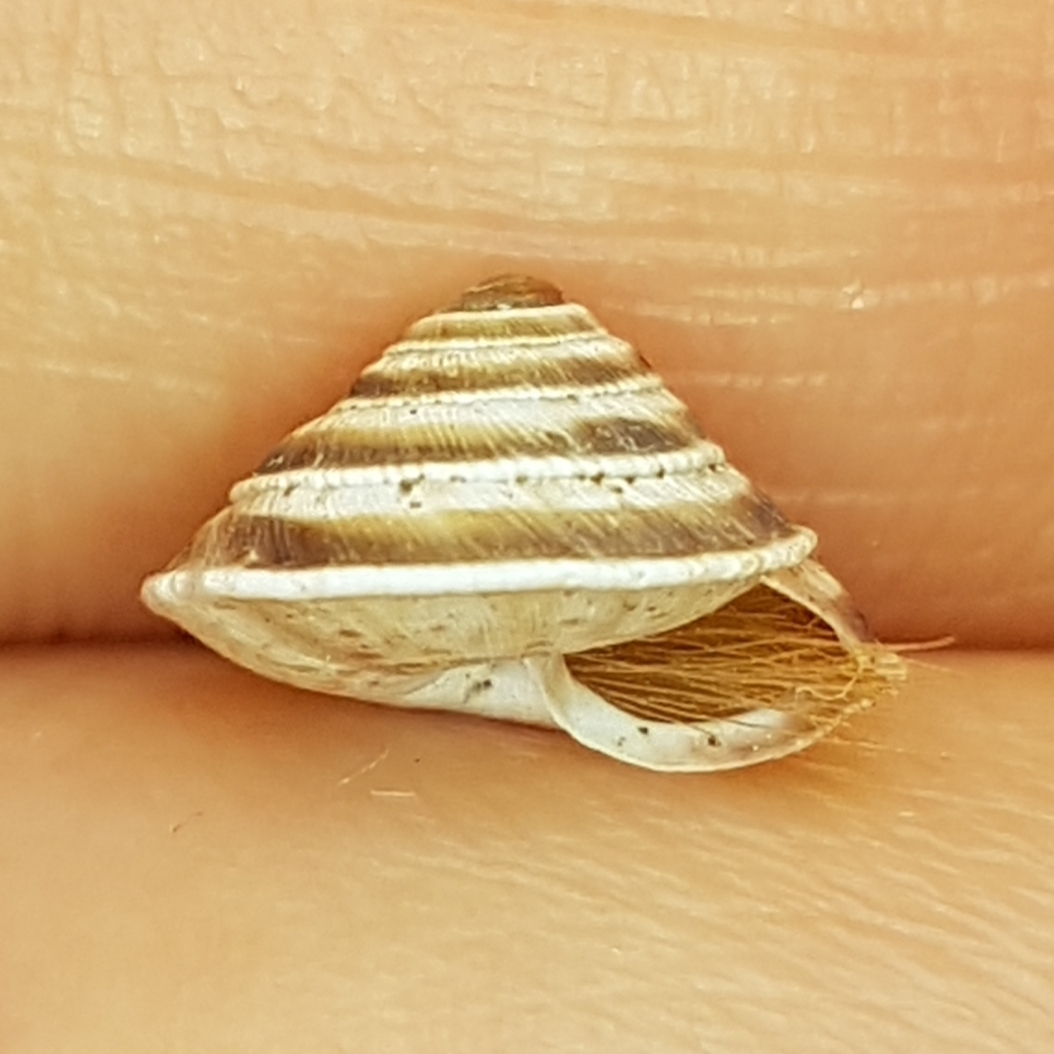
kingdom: Animalia
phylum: Mollusca
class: Gastropoda
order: Stylommatophora
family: Geomitridae
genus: Trochoidea
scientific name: Trochoidea elegans
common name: Elegant helicellid
